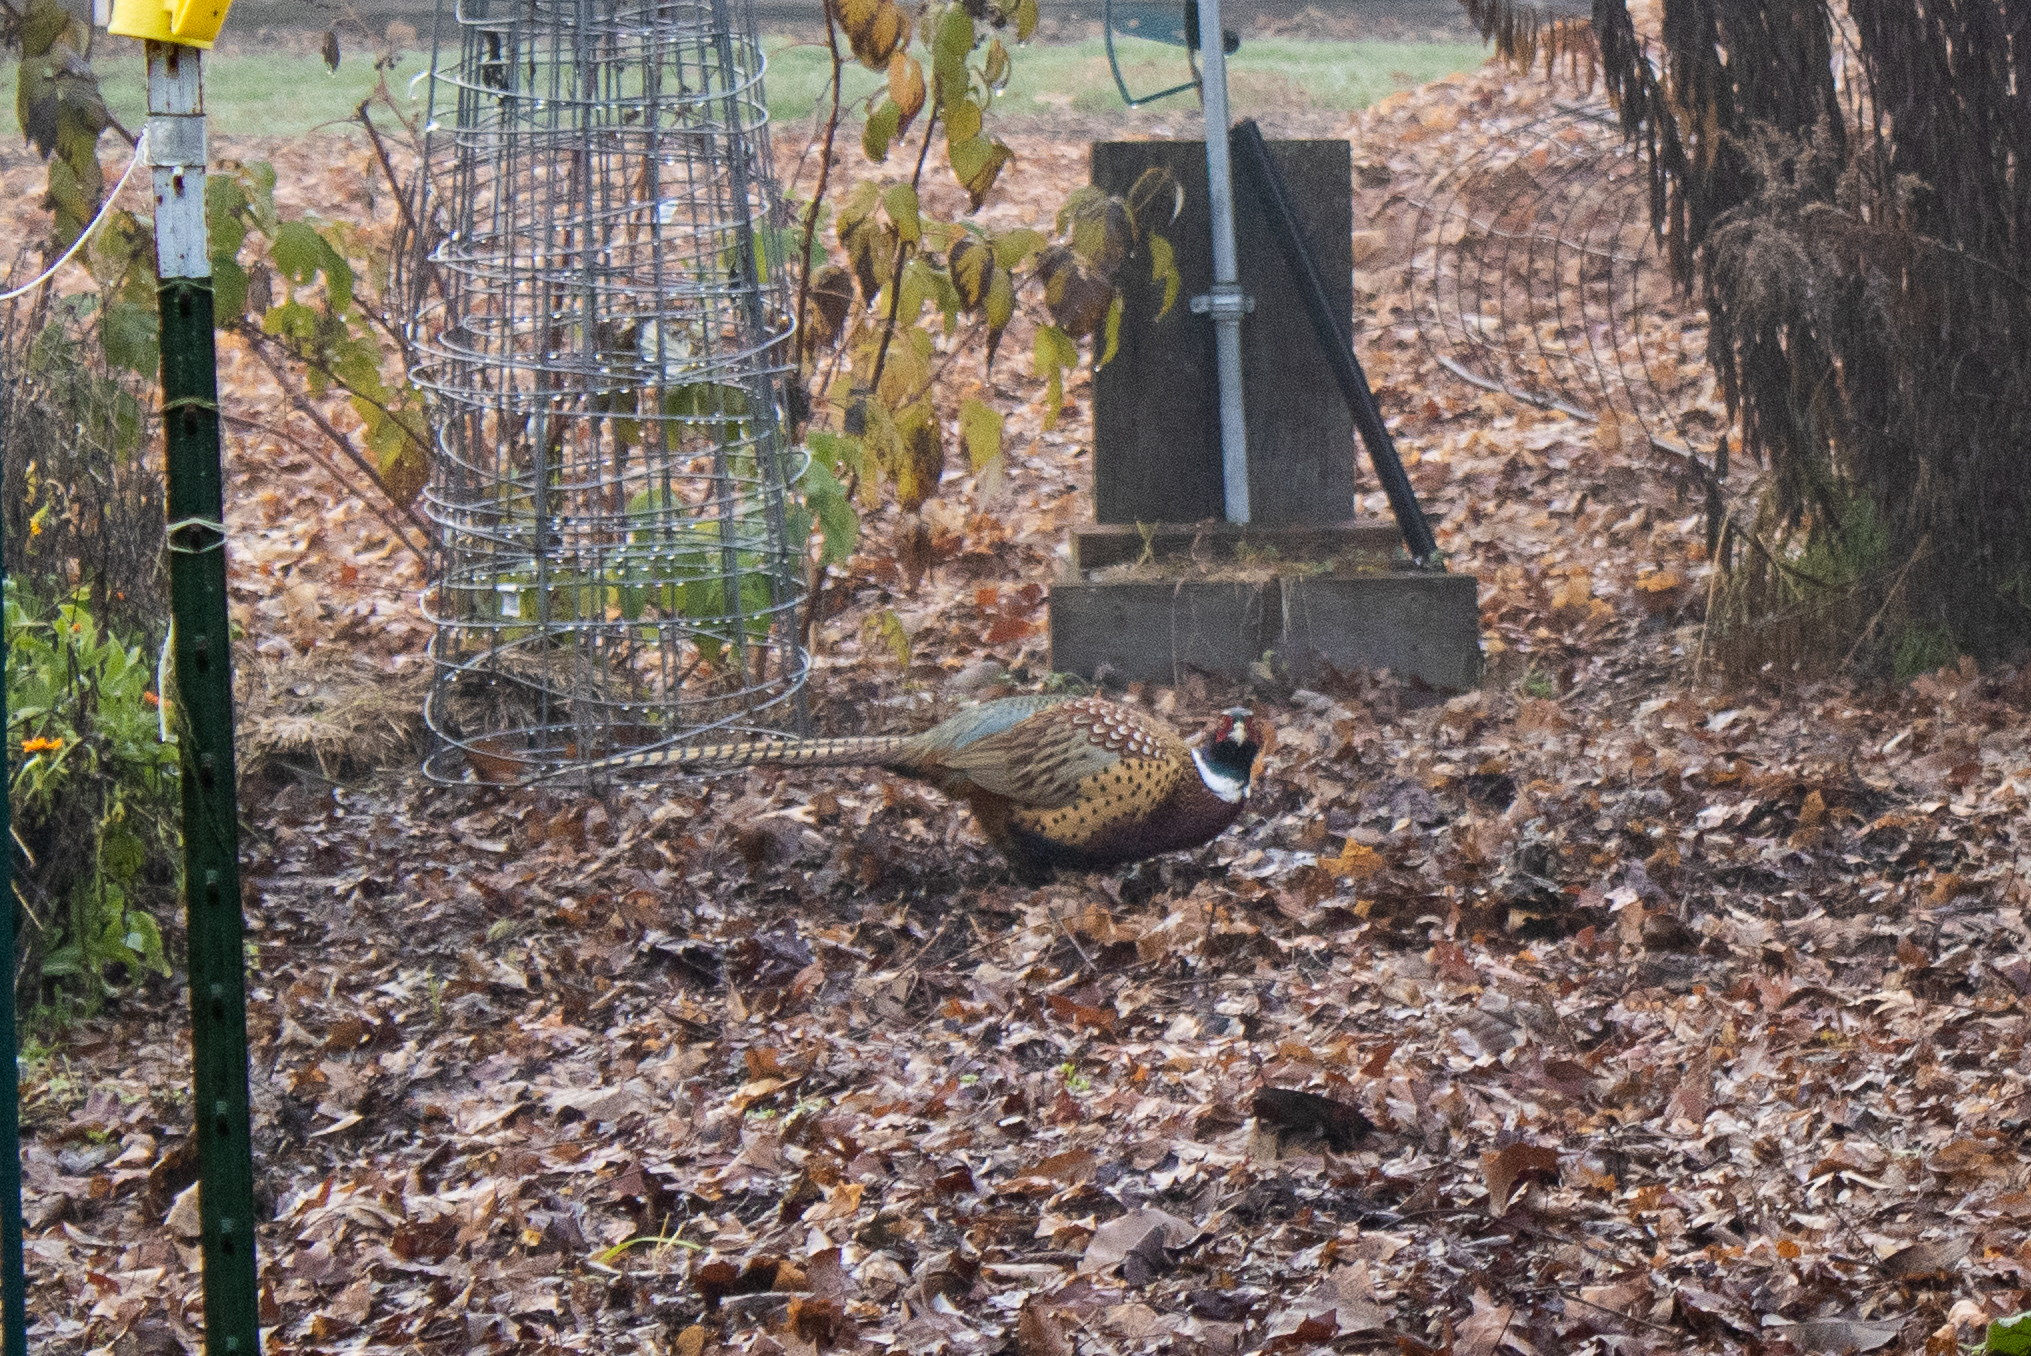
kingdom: Animalia
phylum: Chordata
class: Aves
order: Galliformes
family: Phasianidae
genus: Phasianus
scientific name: Phasianus colchicus
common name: Common pheasant
